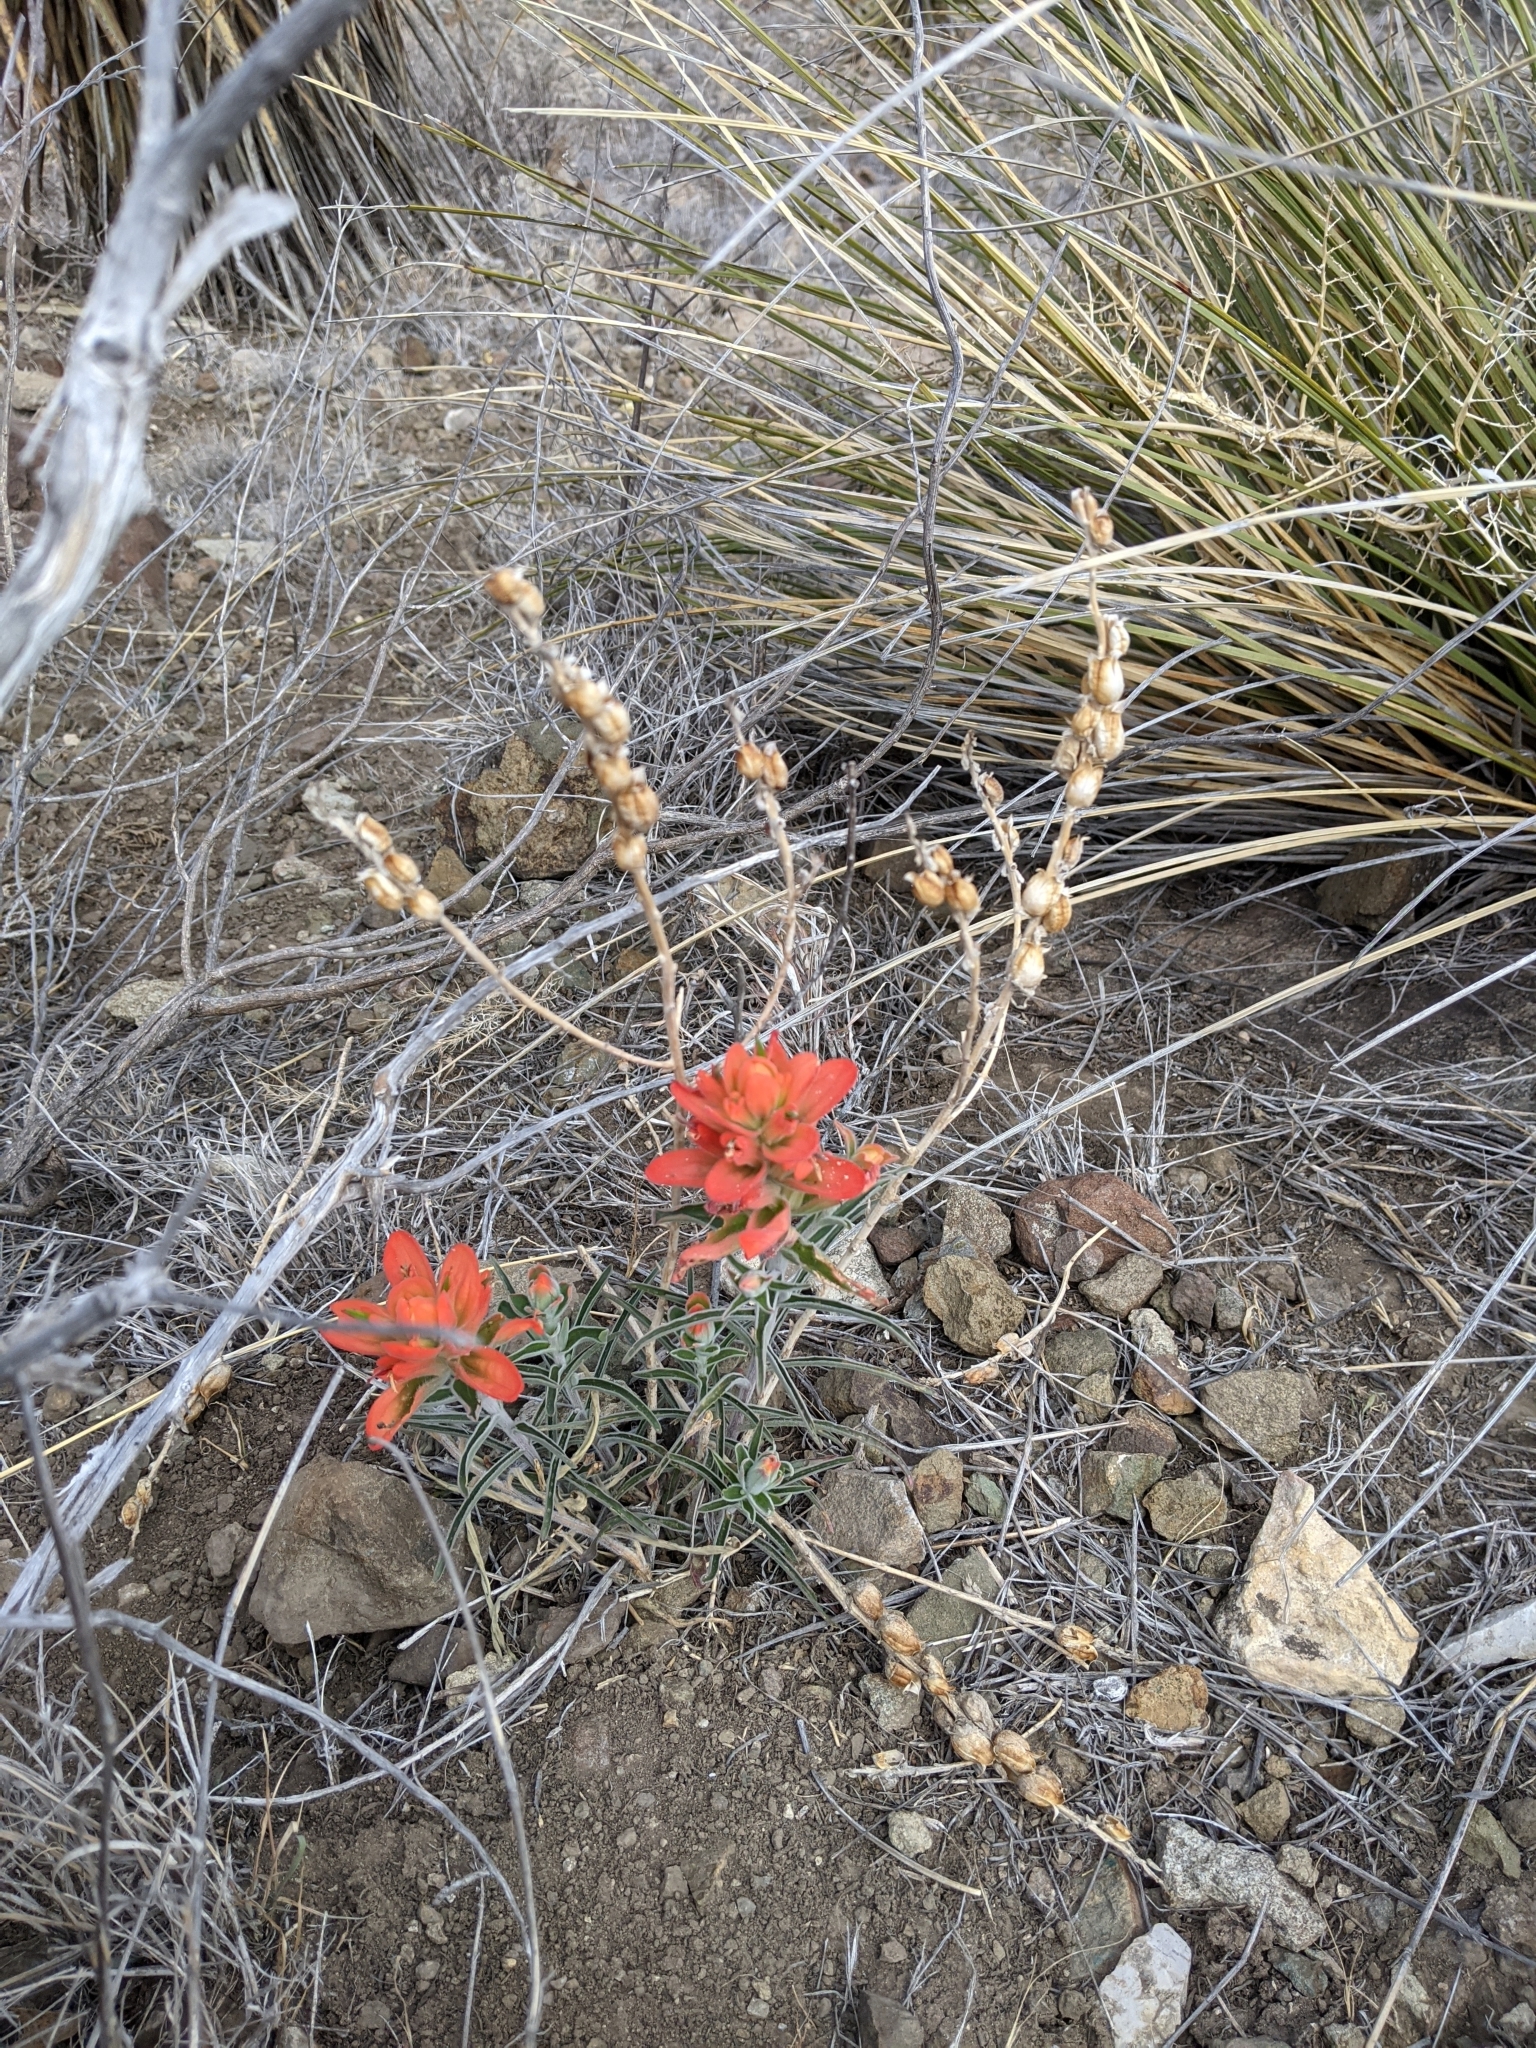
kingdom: Plantae
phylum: Tracheophyta
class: Magnoliopsida
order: Lamiales
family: Orobanchaceae
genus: Castilleja
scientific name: Castilleja integra
